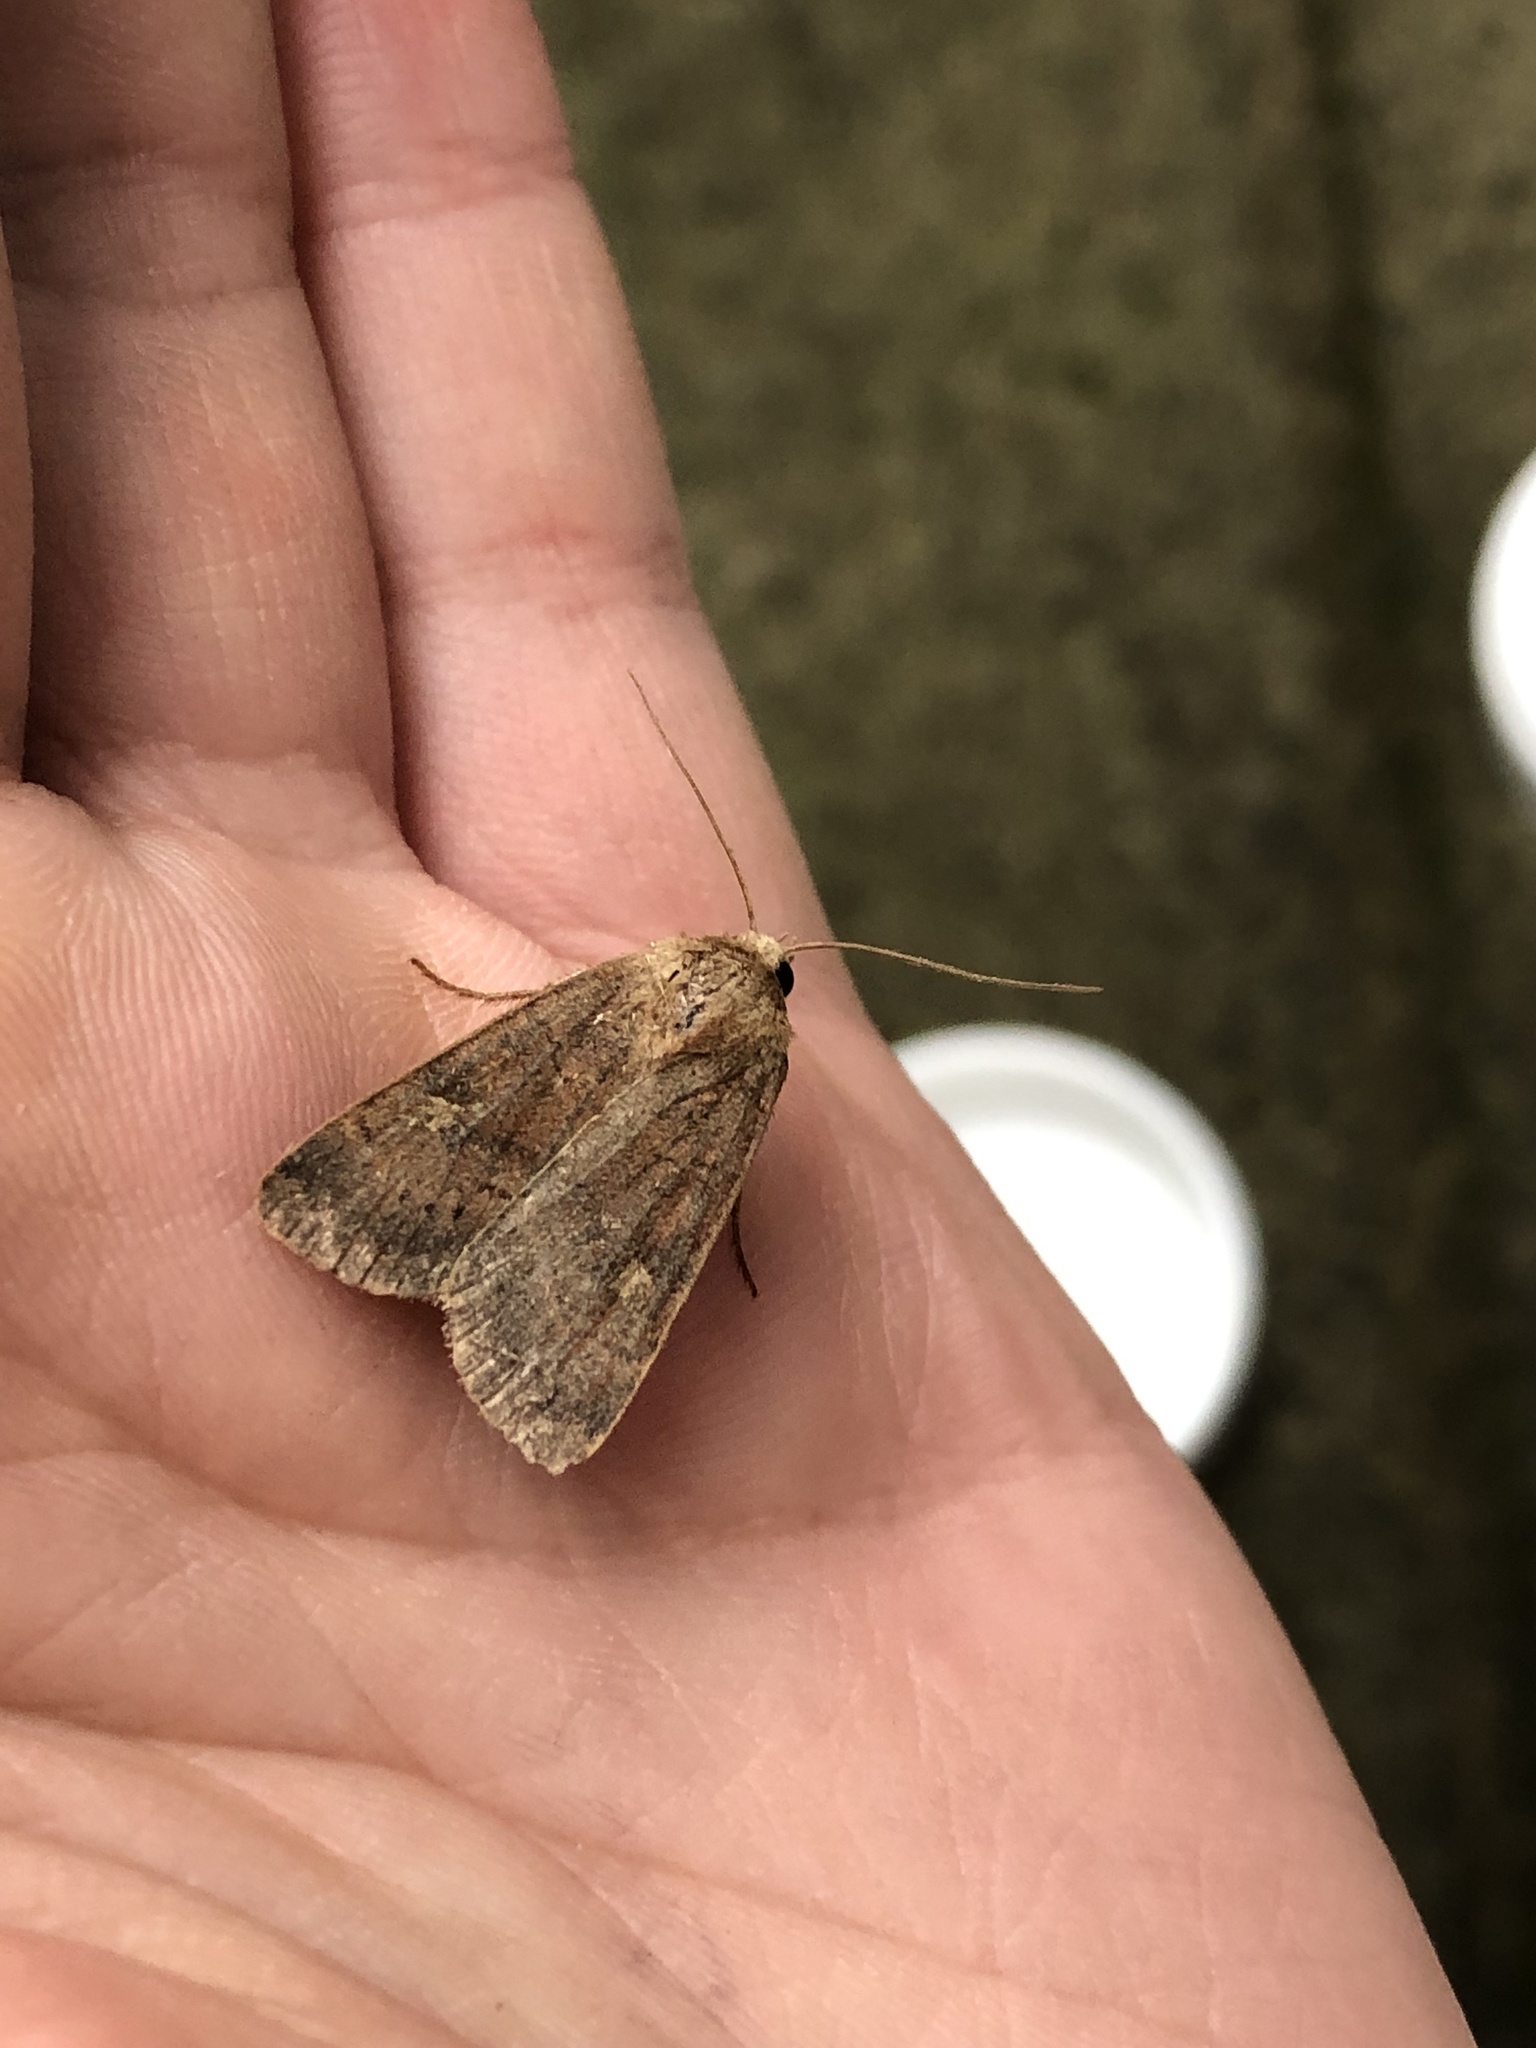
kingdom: Animalia
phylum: Arthropoda
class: Insecta
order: Lepidoptera
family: Noctuidae
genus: Xestia
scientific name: Xestia xanthographa
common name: Square-spot rustic
